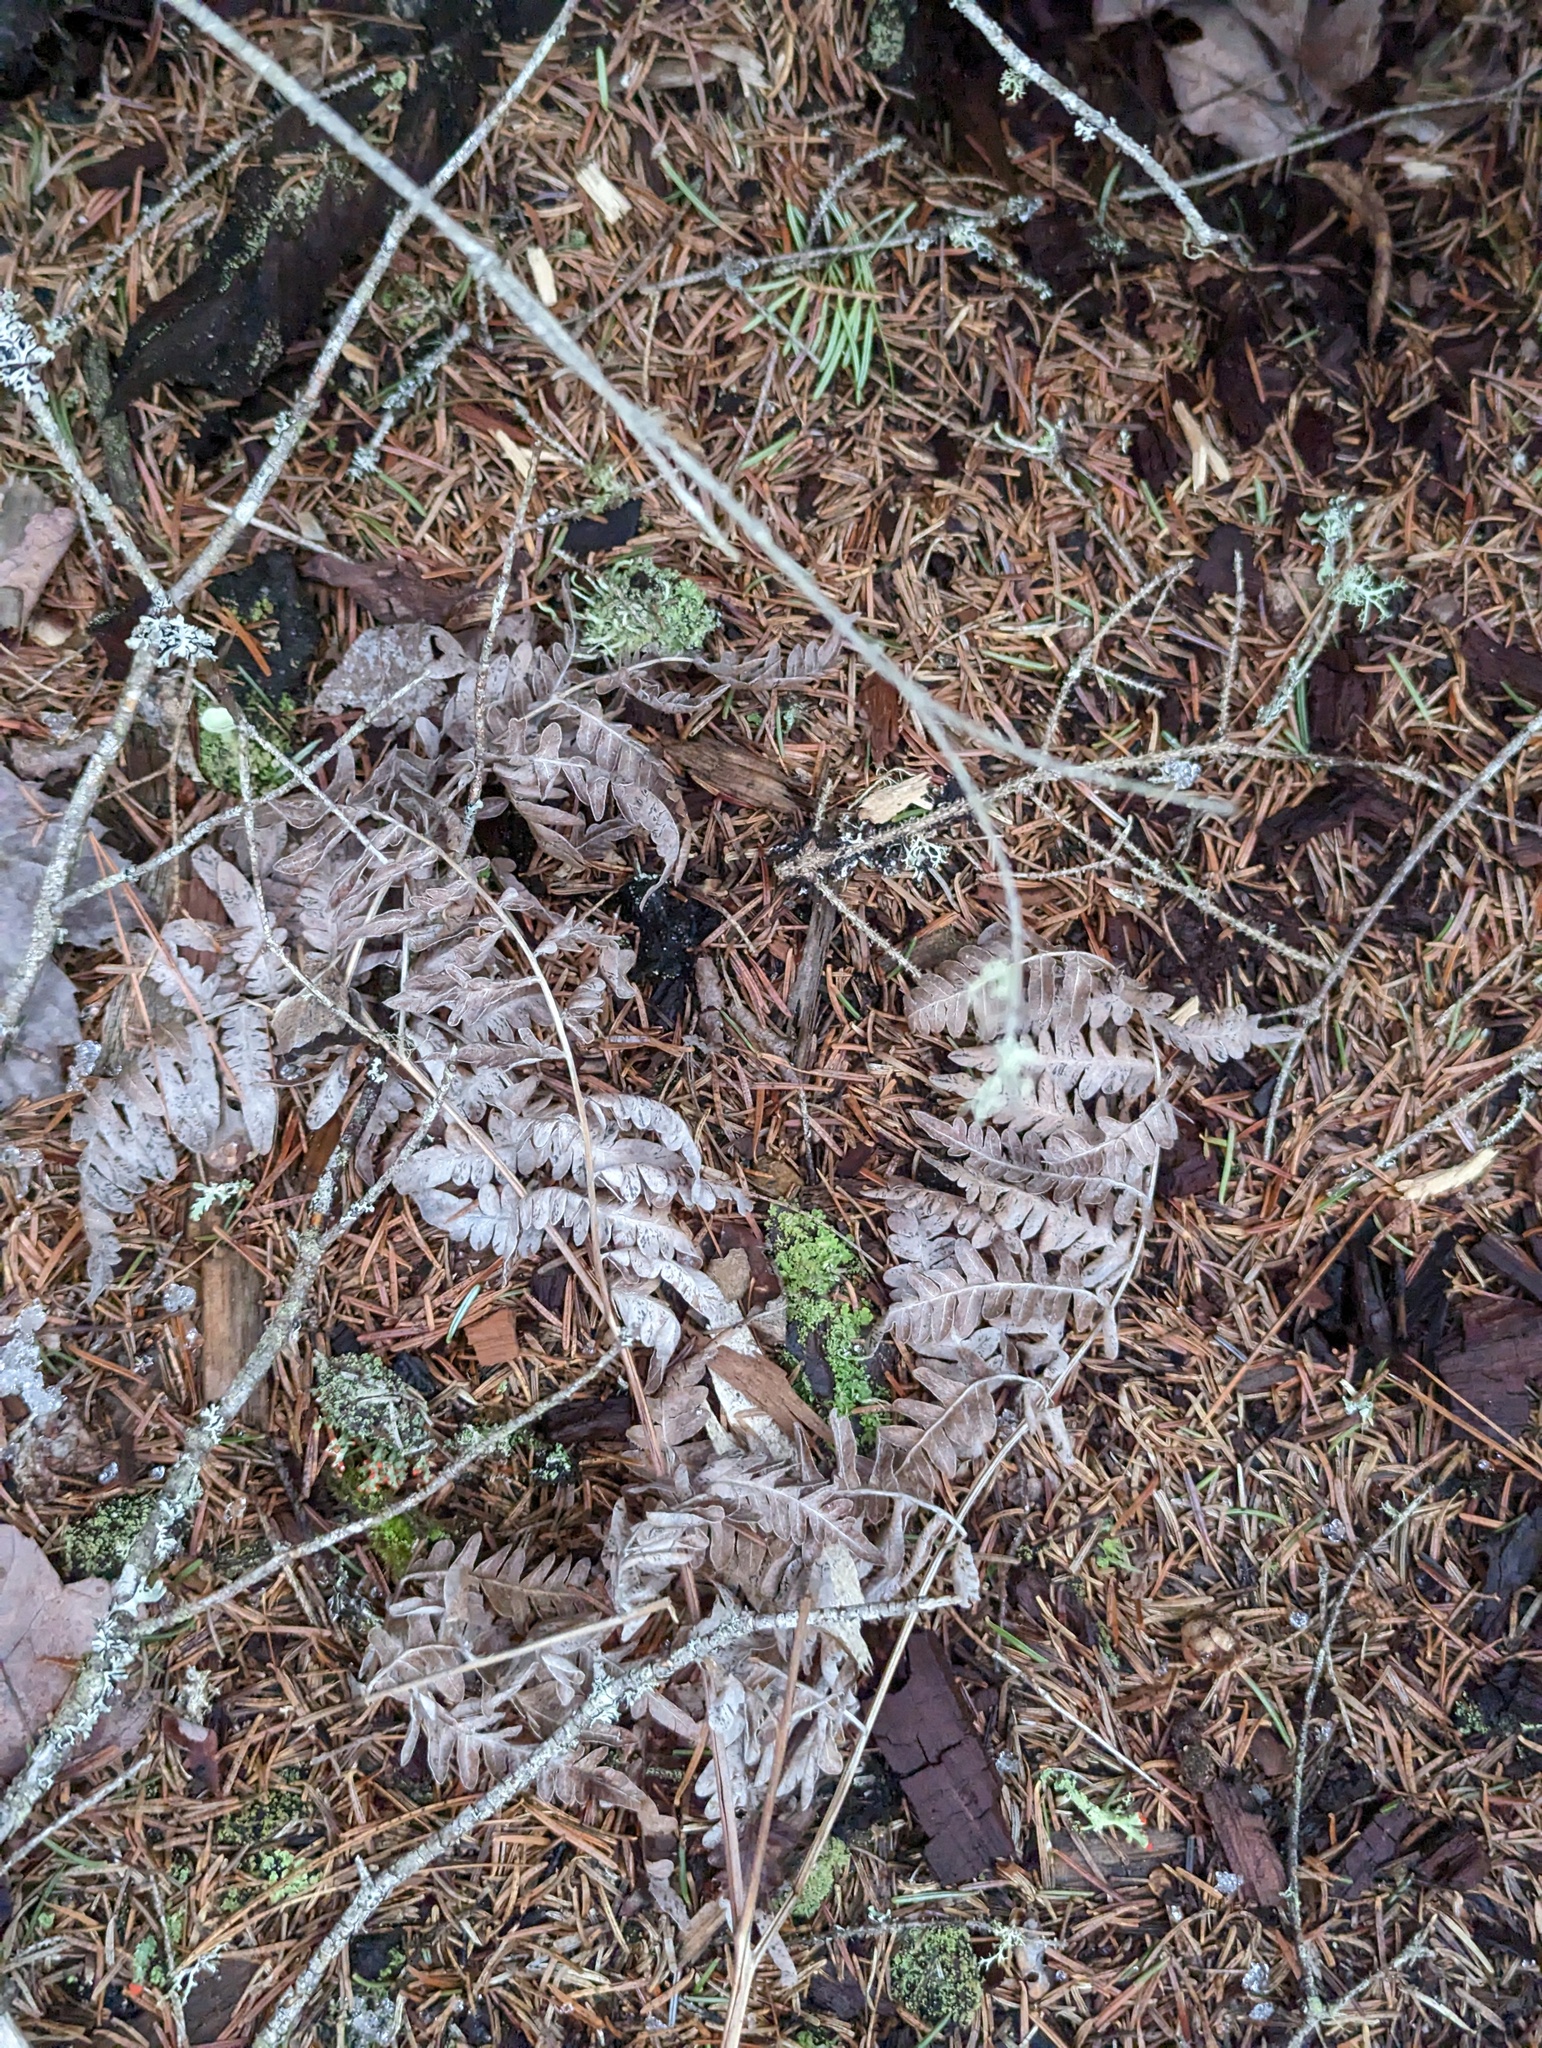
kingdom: Plantae
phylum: Tracheophyta
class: Polypodiopsida
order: Polypodiales
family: Dennstaedtiaceae
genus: Pteridium
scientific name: Pteridium aquilinum
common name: Bracken
